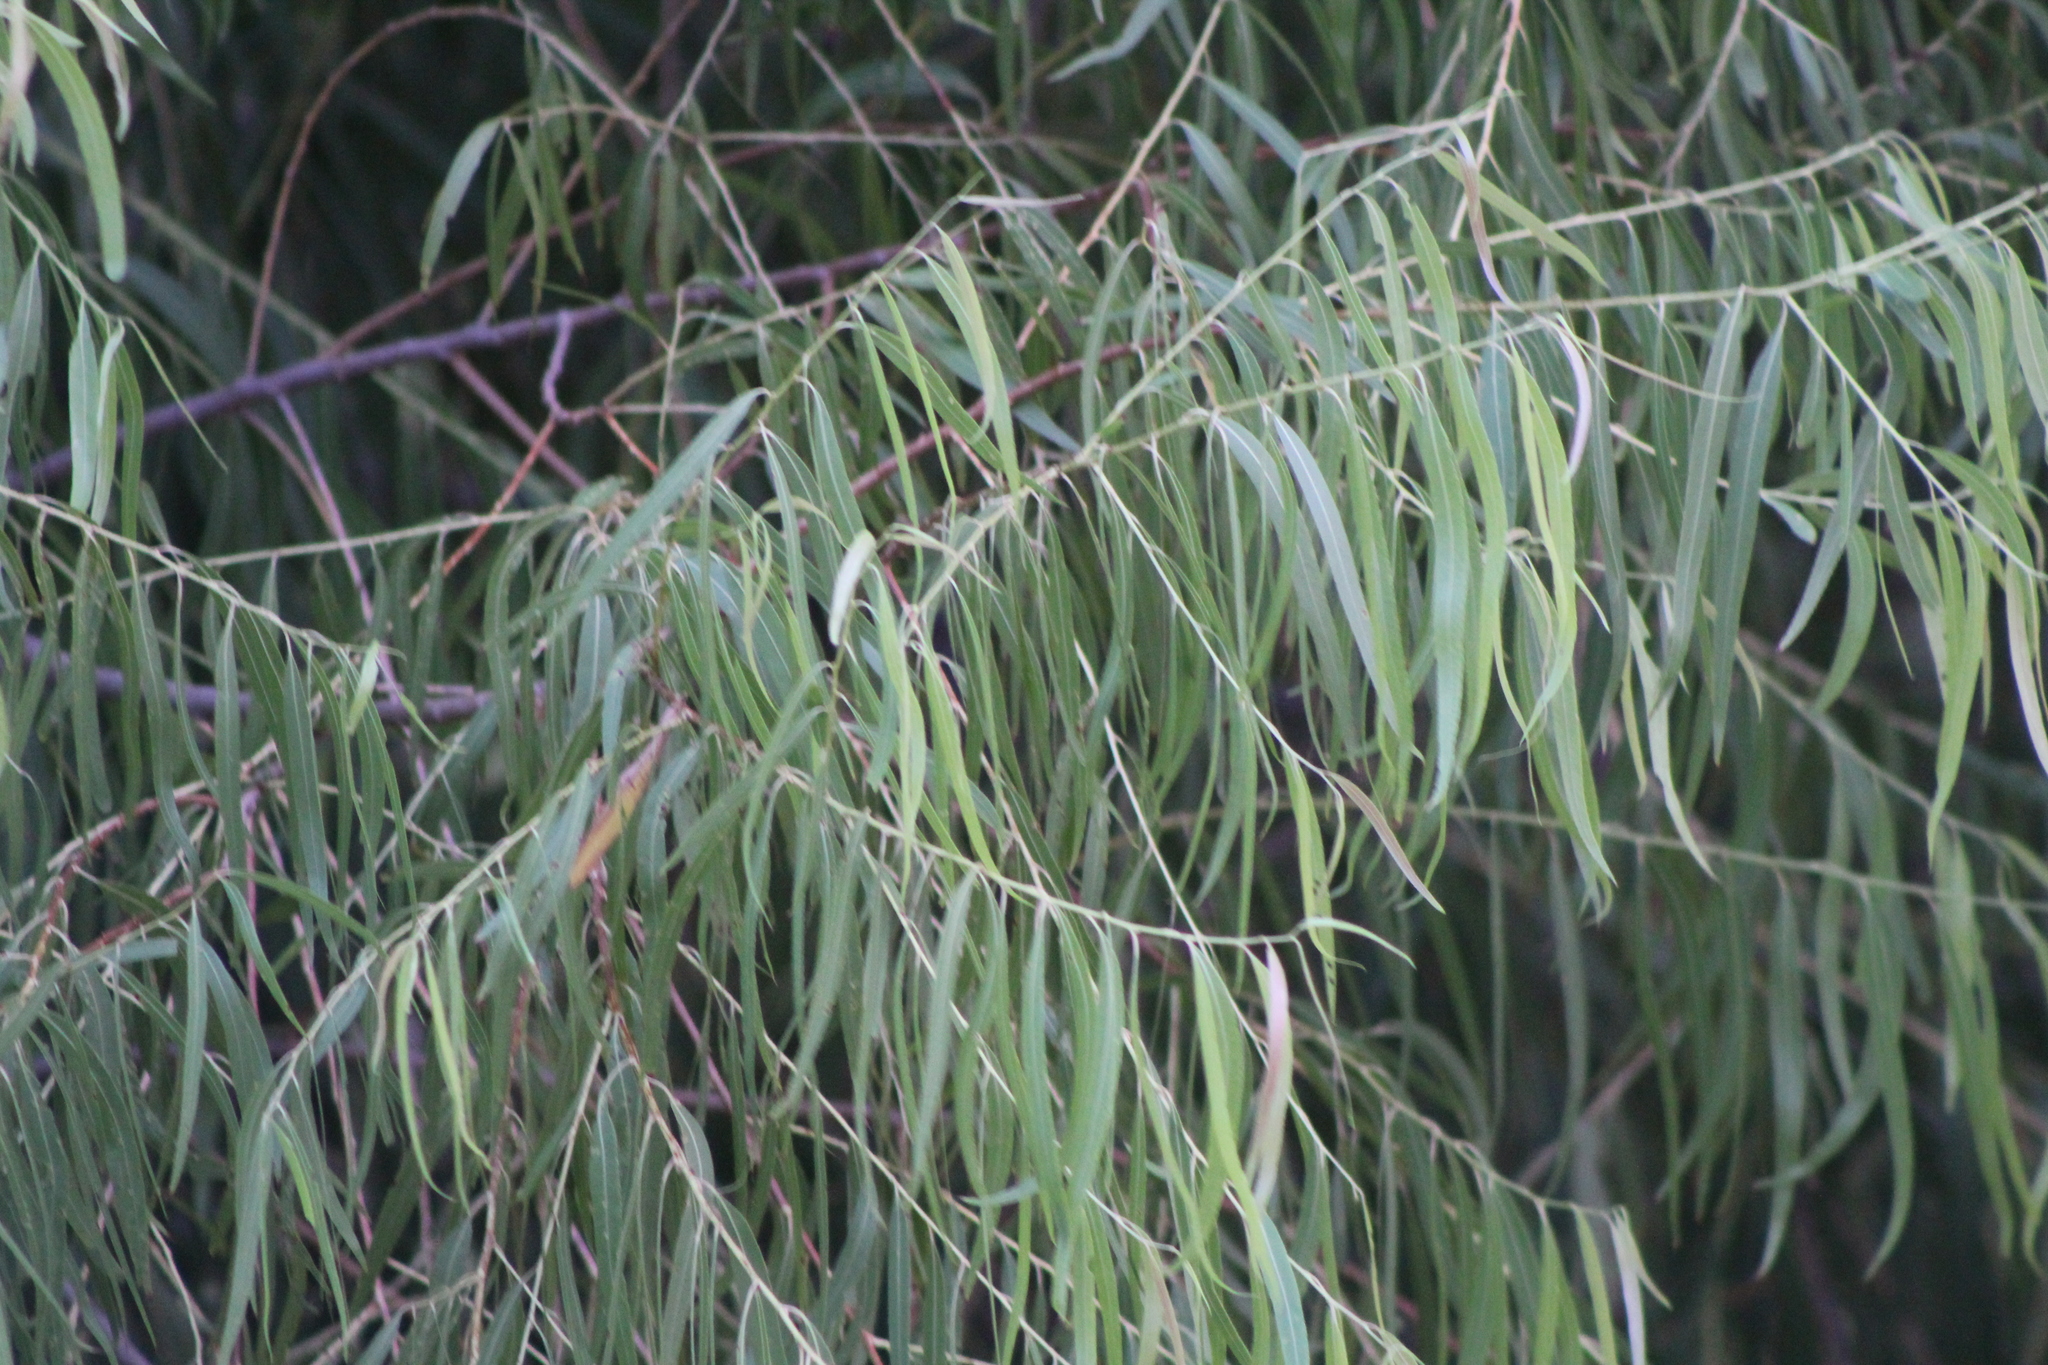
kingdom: Plantae
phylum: Tracheophyta
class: Magnoliopsida
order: Malpighiales
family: Salicaceae
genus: Salix
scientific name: Salix nigra
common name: Black willow
